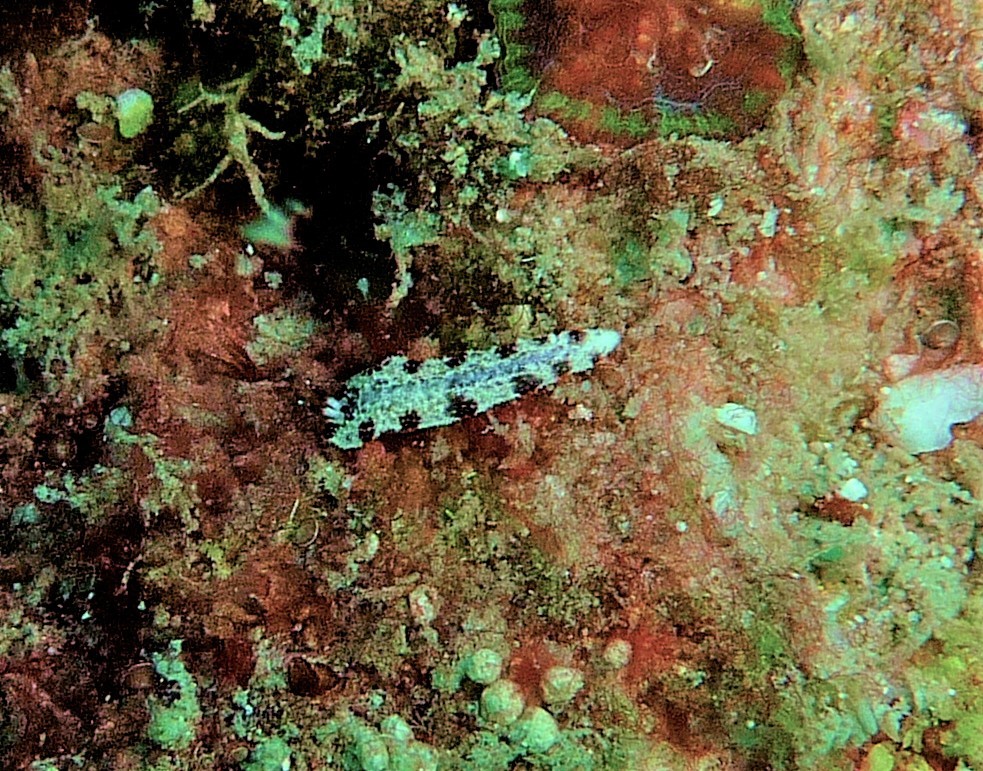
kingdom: Animalia
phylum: Mollusca
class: Gastropoda
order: Nudibranchia
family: Arminidae
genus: Dermatobranchus
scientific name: Dermatobranchus fortunatus
